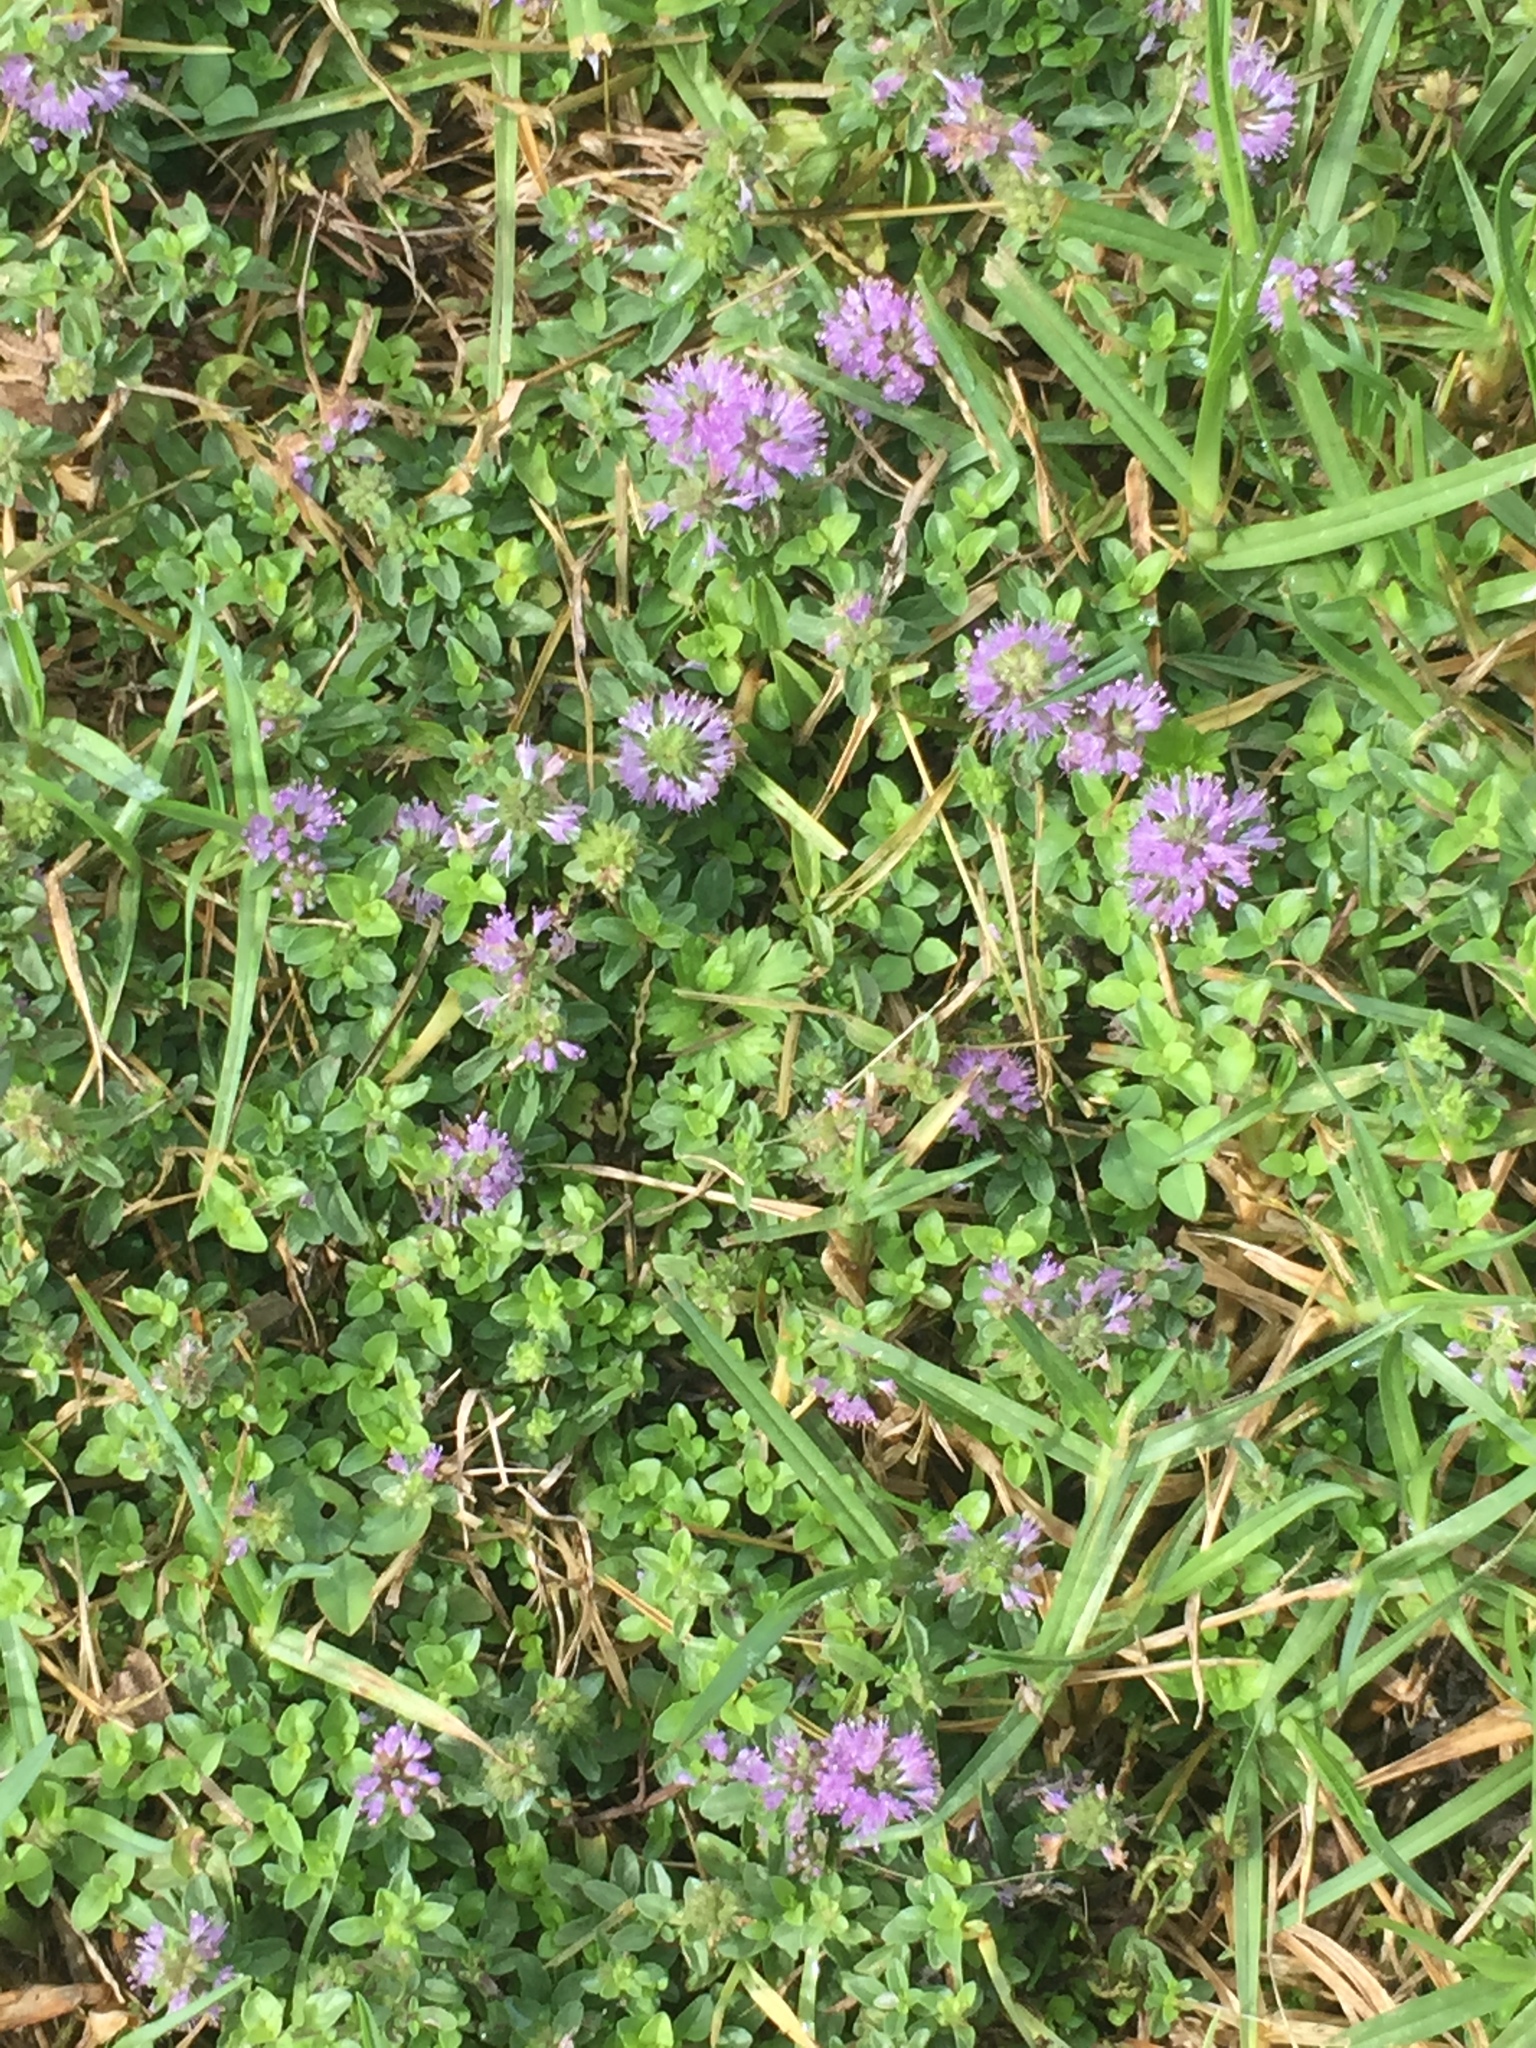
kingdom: Plantae
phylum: Tracheophyta
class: Magnoliopsida
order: Lamiales
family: Lamiaceae
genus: Mentha
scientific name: Mentha pulegium
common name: Pennyroyal
